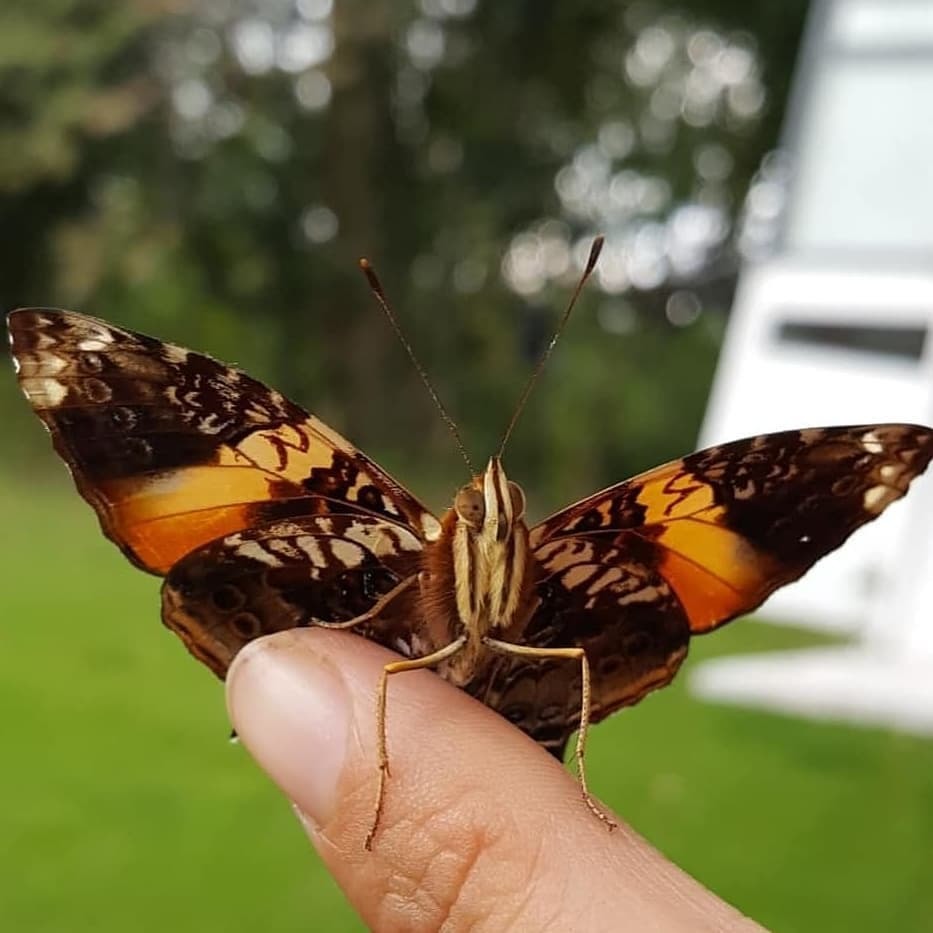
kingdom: Animalia
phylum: Arthropoda
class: Insecta
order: Lepidoptera
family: Nymphalidae
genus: Hypanartia
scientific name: Hypanartia godmanii
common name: Godman's mapwing
